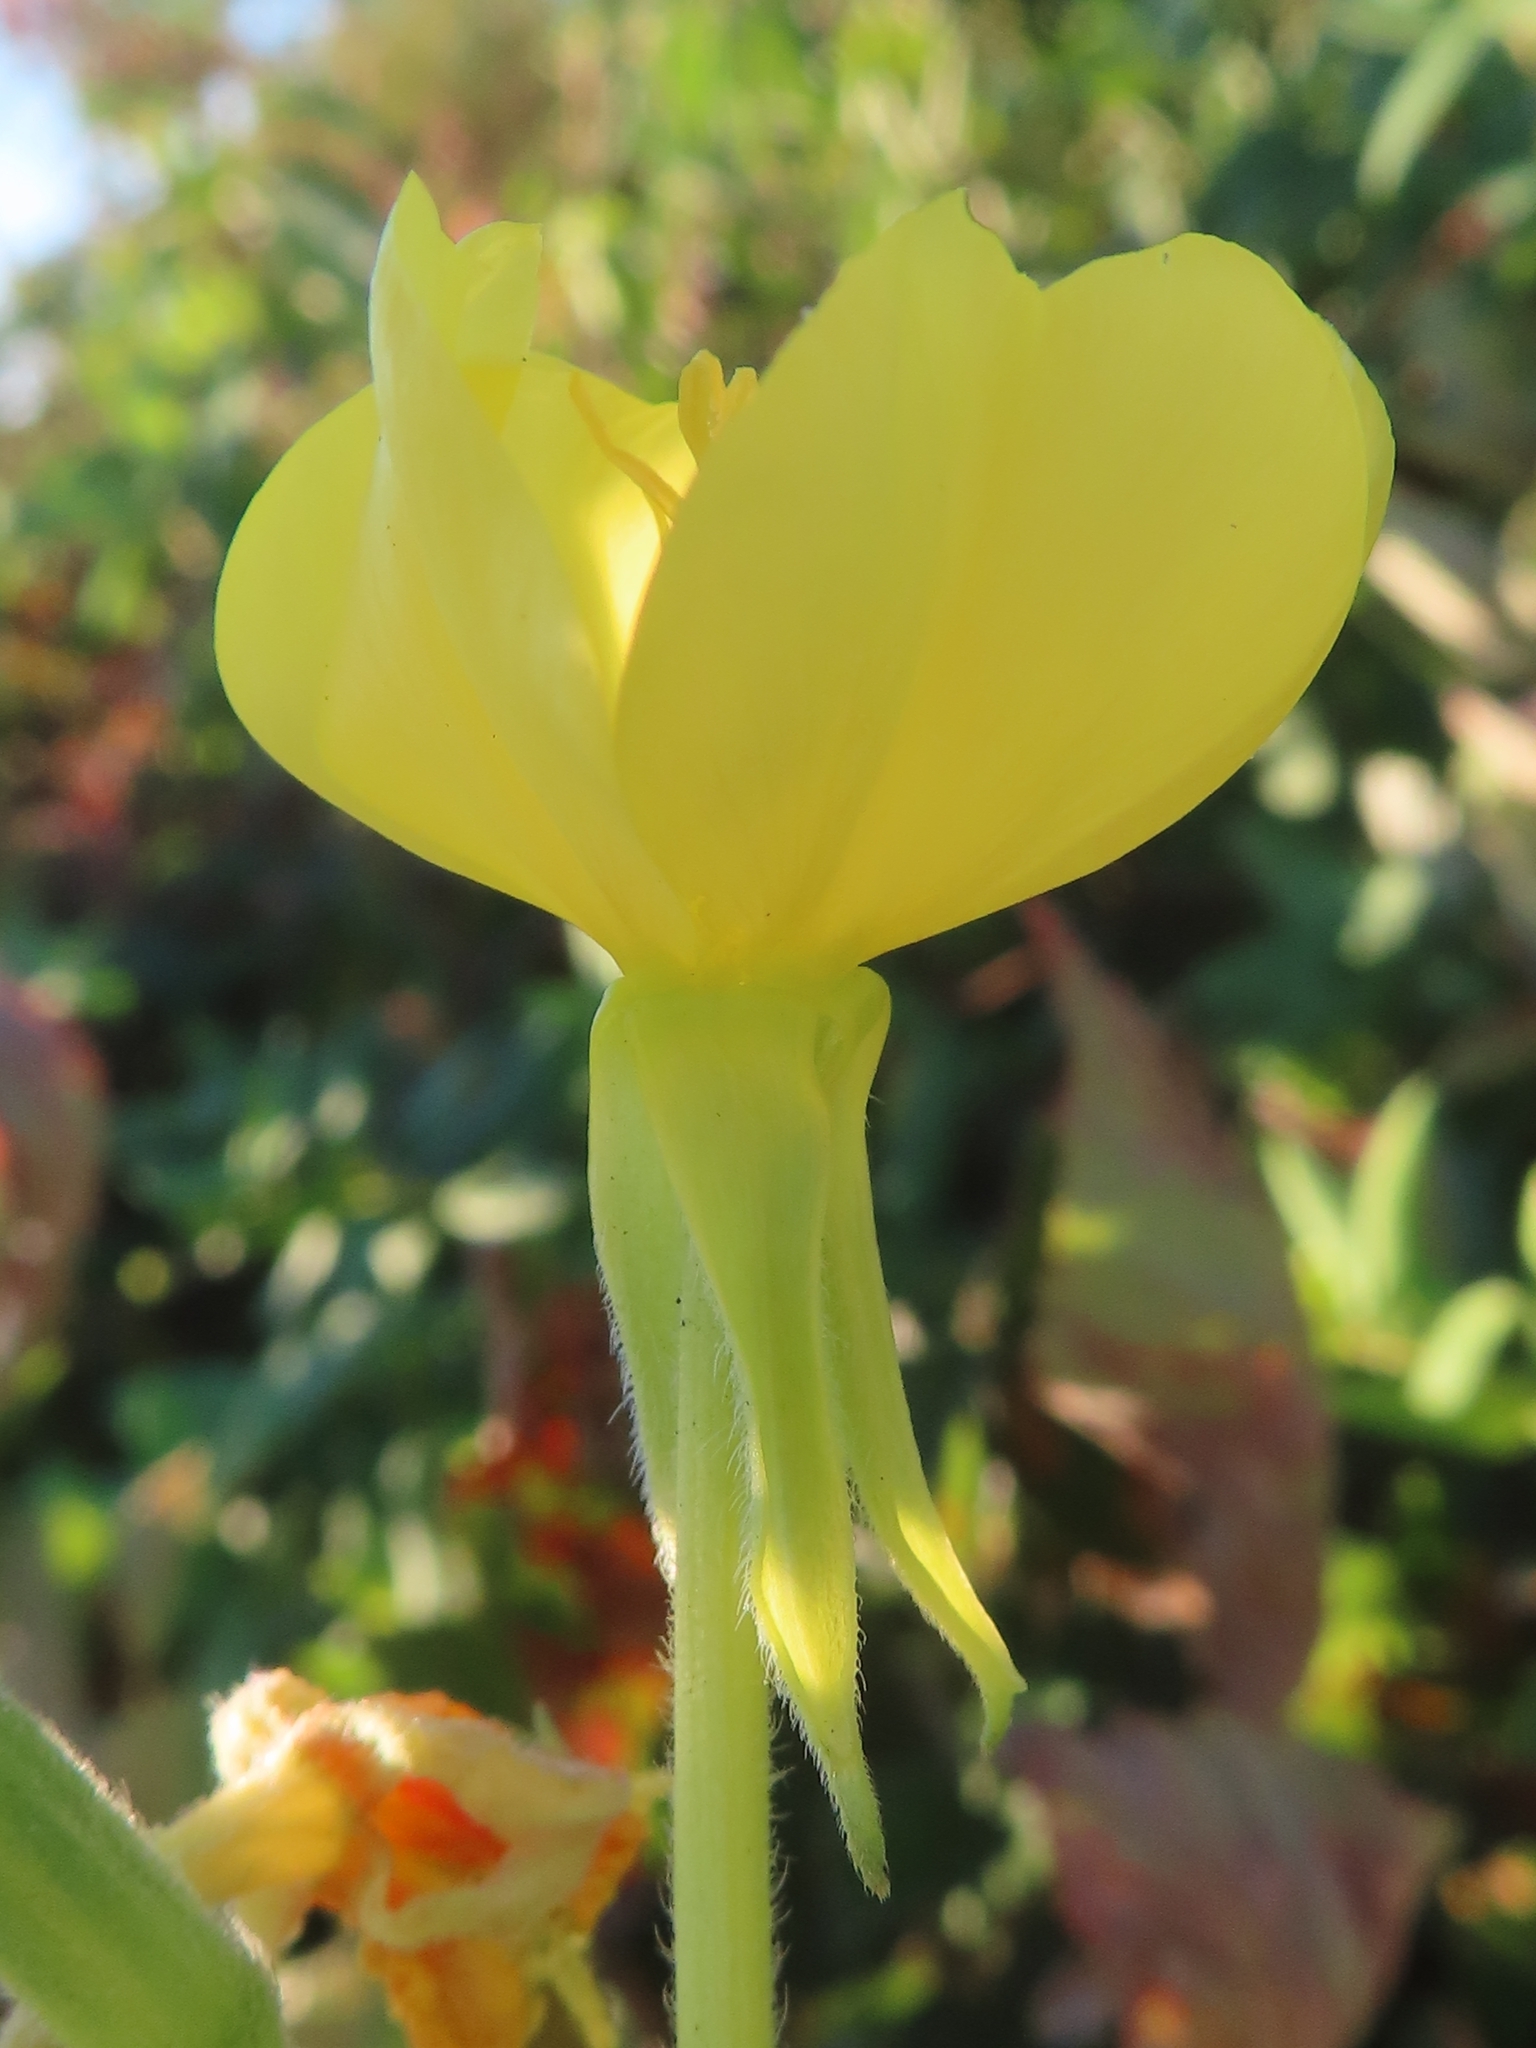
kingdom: Plantae
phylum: Tracheophyta
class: Magnoliopsida
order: Myrtales
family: Onagraceae
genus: Oenothera
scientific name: Oenothera parviflora
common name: Least evening-primrose
